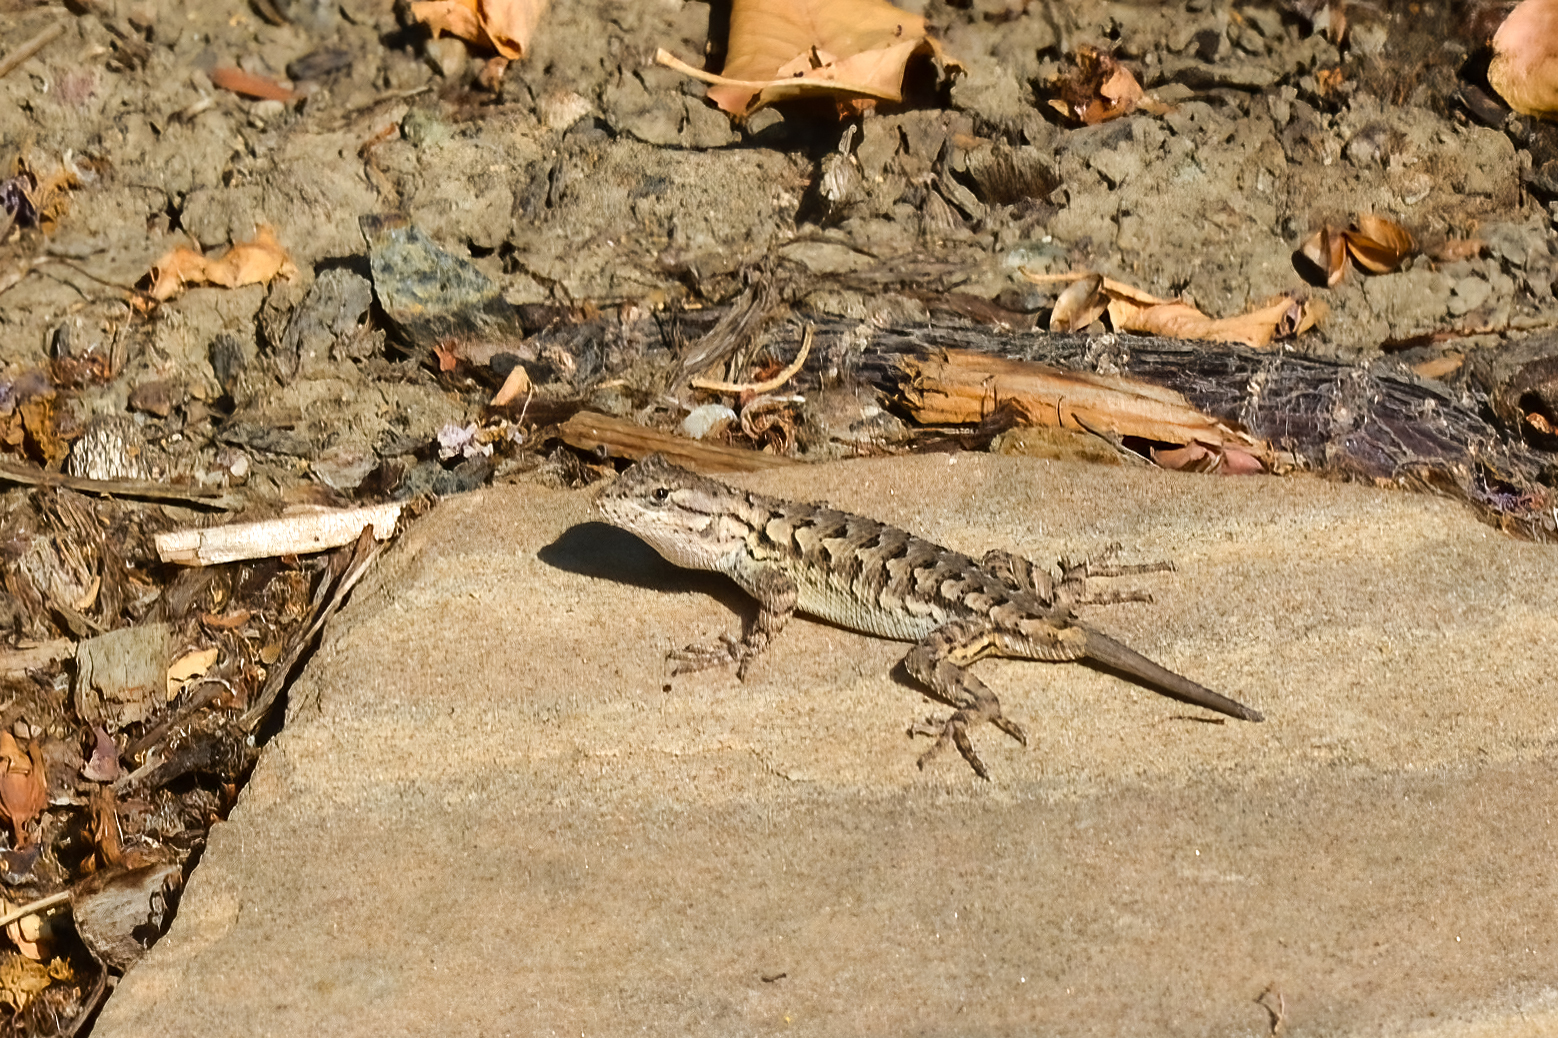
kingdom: Animalia
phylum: Chordata
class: Squamata
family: Phrynosomatidae
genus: Sceloporus
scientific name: Sceloporus occidentalis
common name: Western fence lizard
